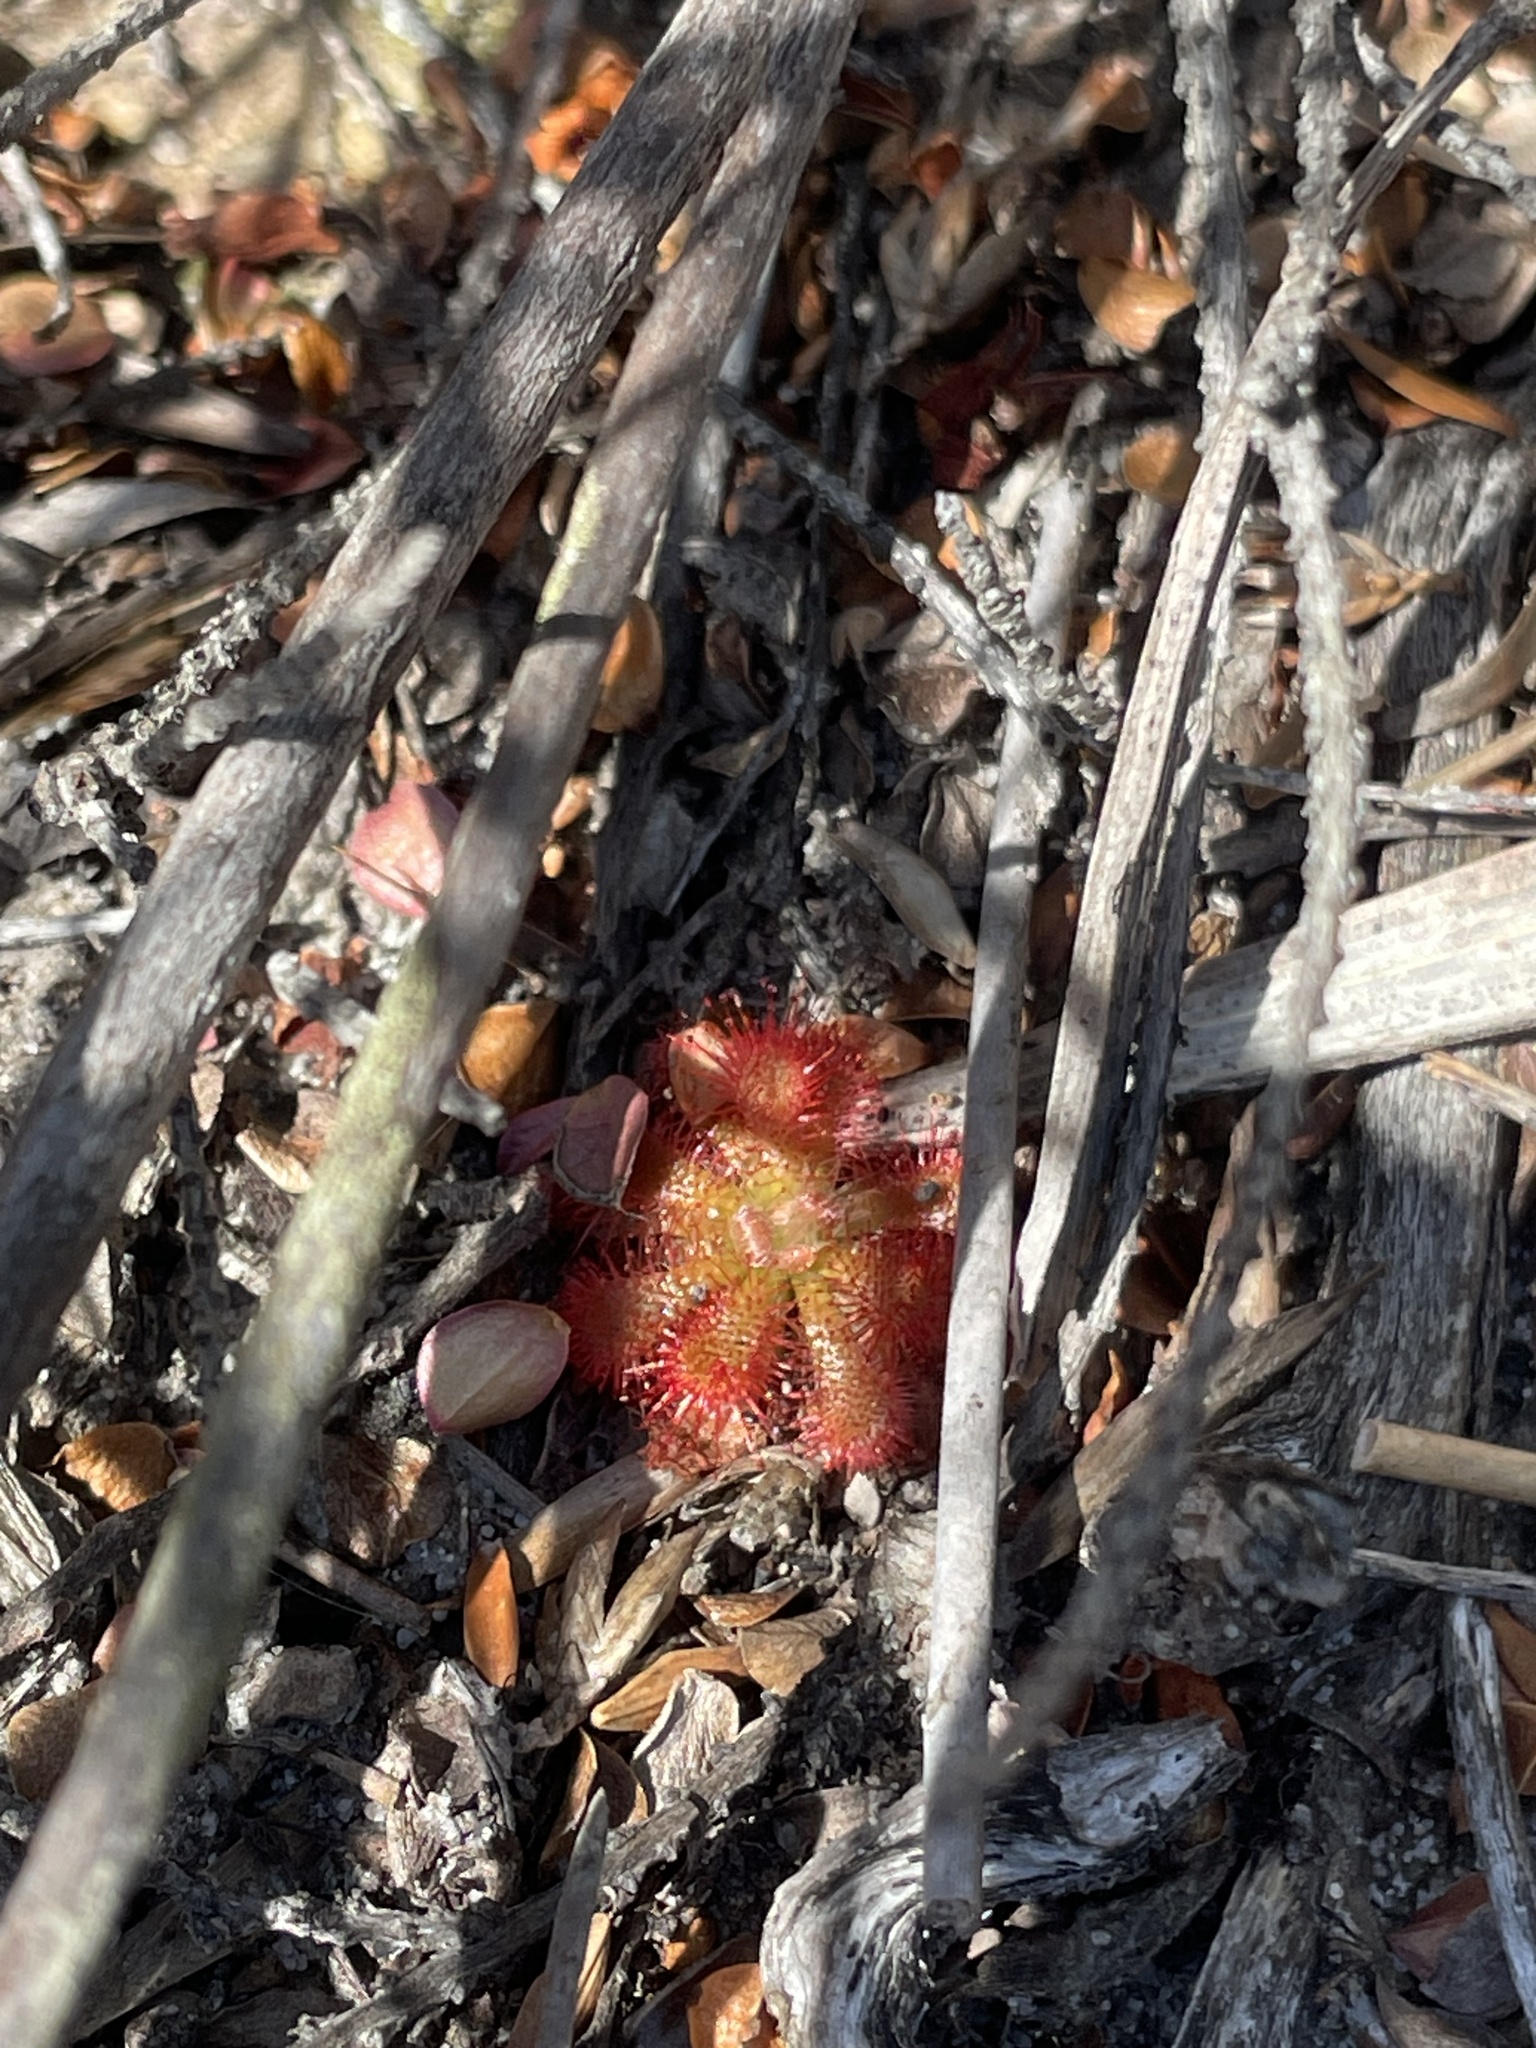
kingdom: Plantae
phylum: Tracheophyta
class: Magnoliopsida
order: Caryophyllales
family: Droseraceae
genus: Drosera
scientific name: Drosera spatulata
